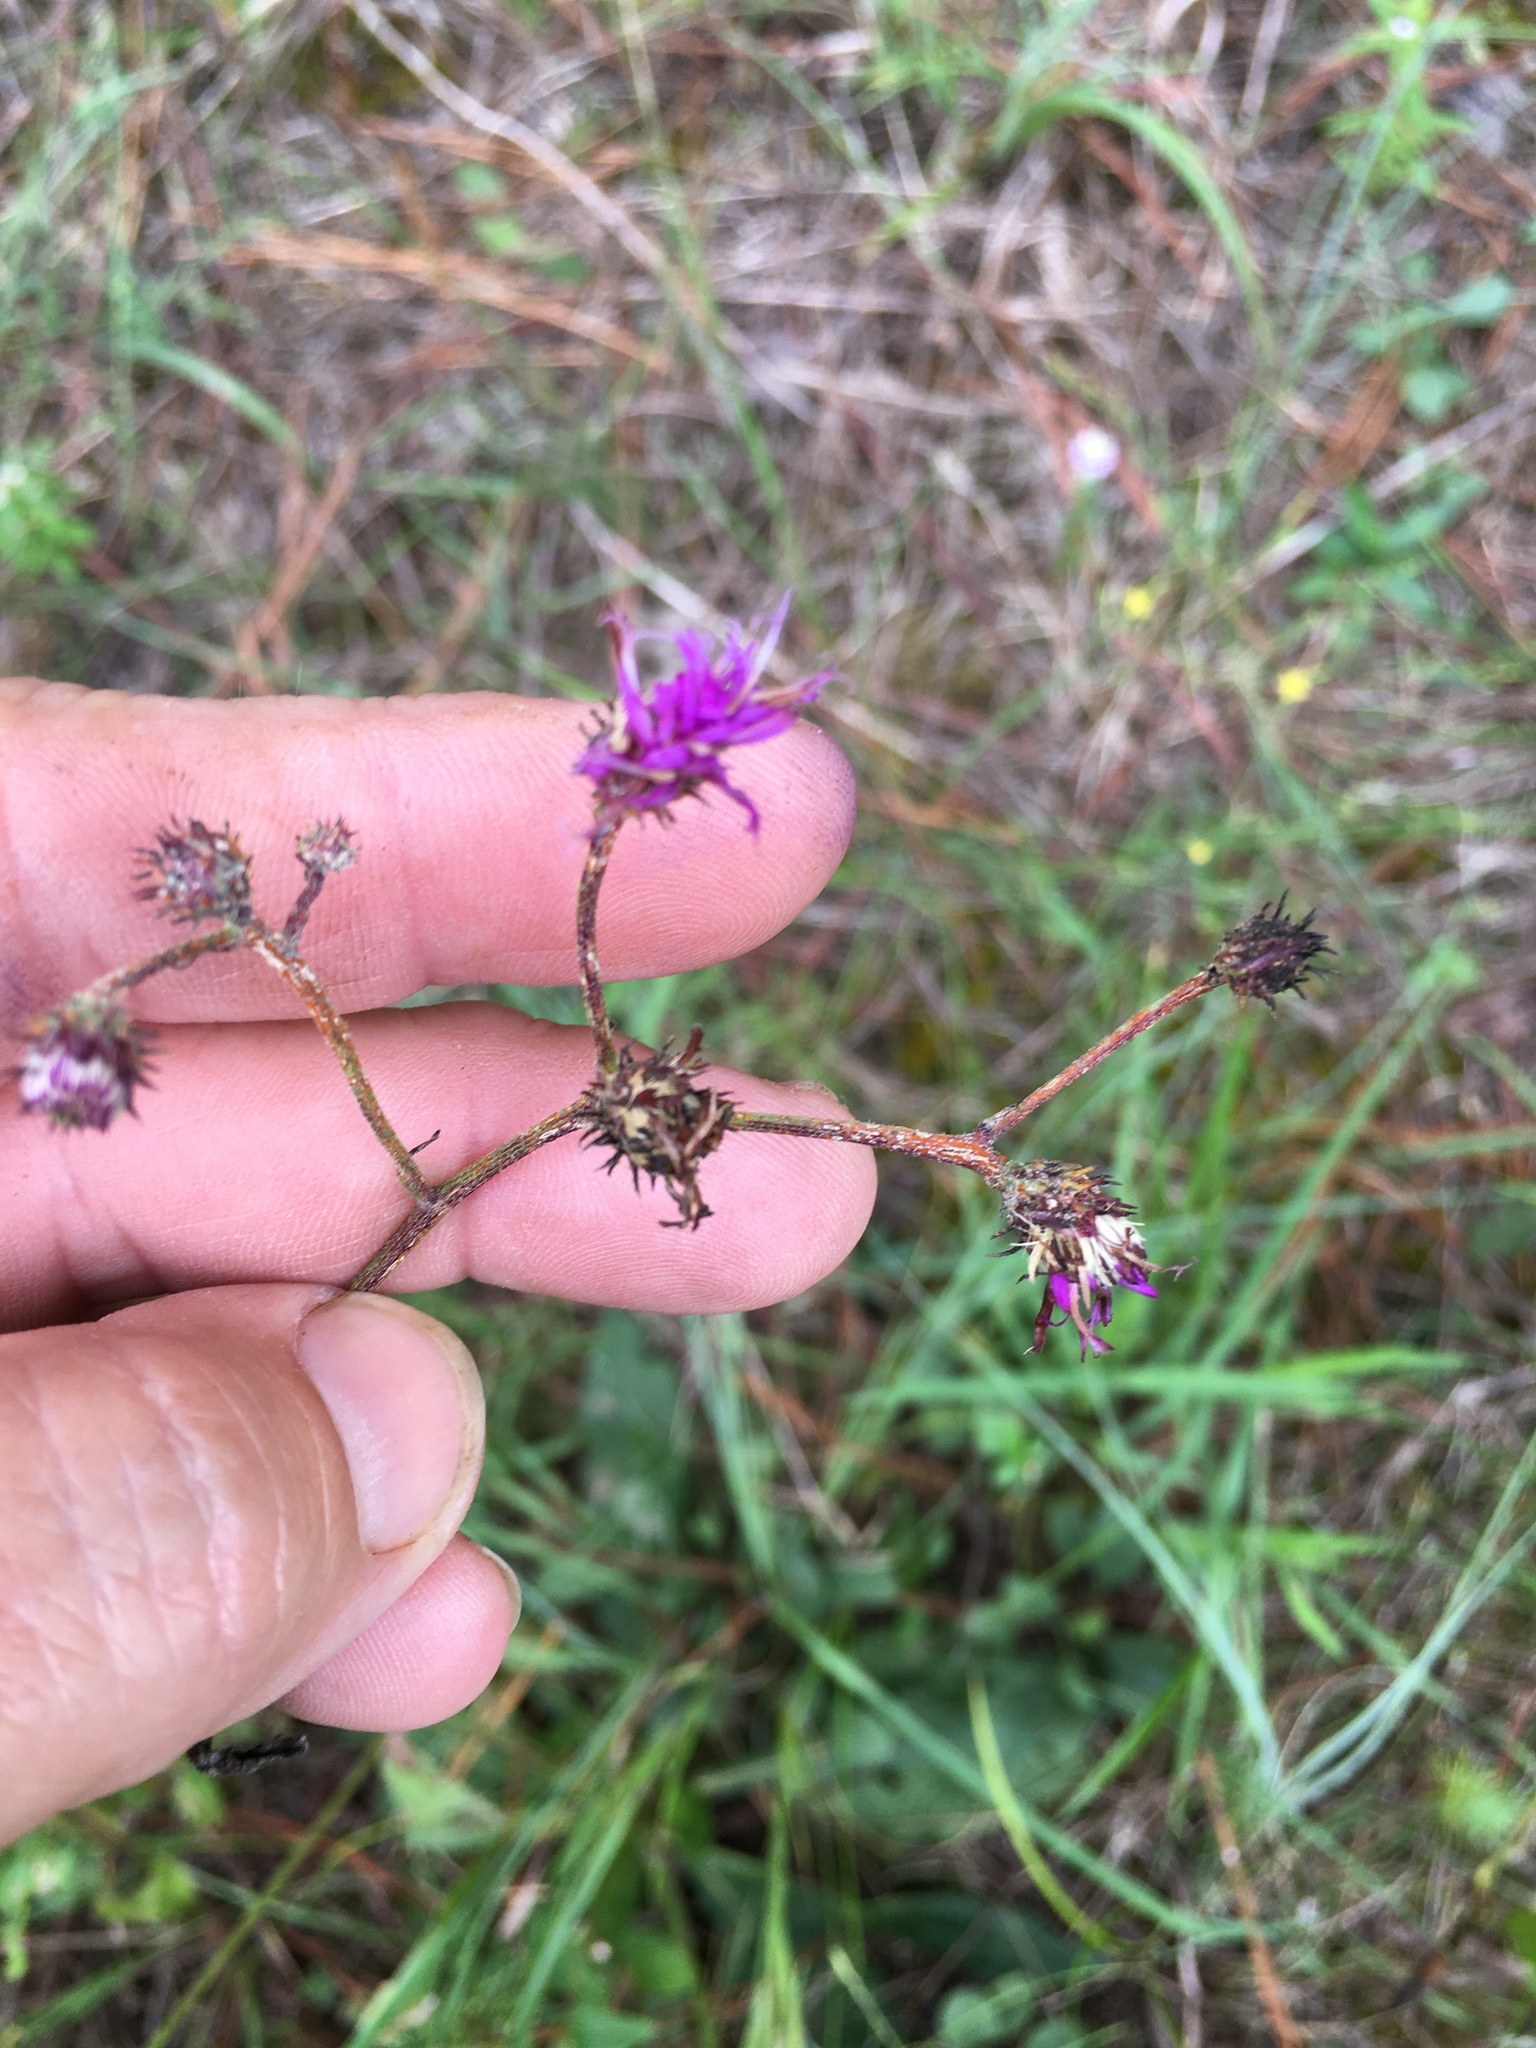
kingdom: Plantae
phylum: Tracheophyta
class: Magnoliopsida
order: Asterales
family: Asteraceae
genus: Vernonia
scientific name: Vernonia acaulis
